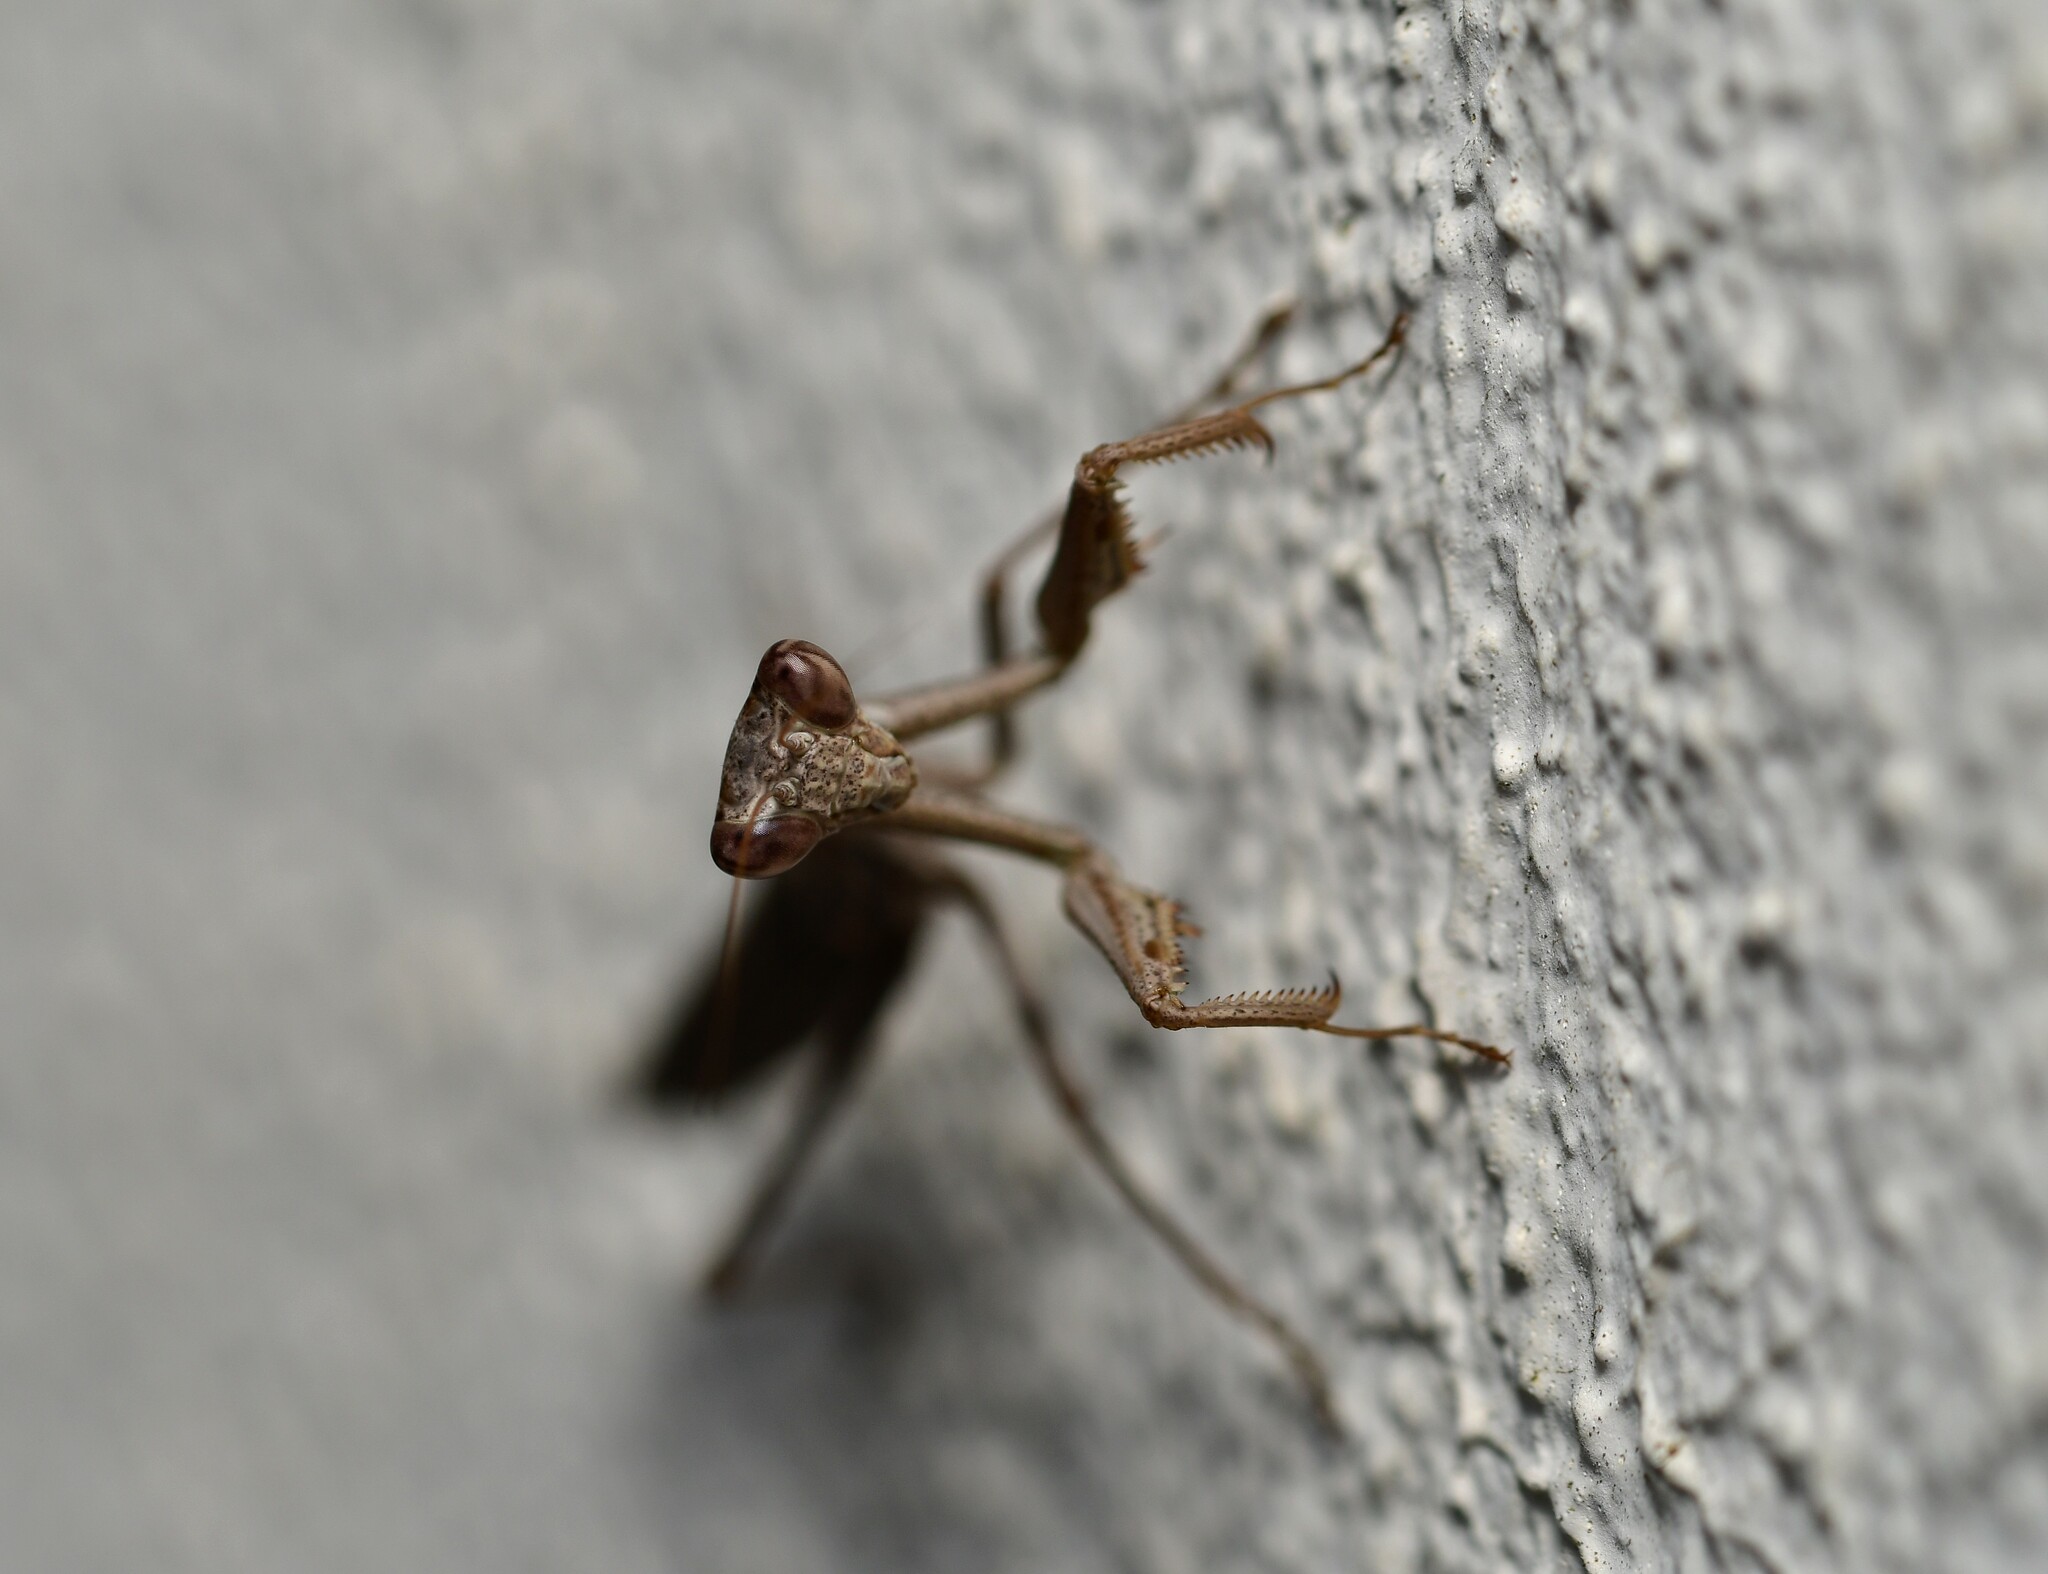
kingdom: Animalia
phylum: Arthropoda
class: Insecta
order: Mantodea
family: Amelidae
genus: Pseudoyersinia
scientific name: Pseudoyersinia paui
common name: Pau's dwarf mantis
